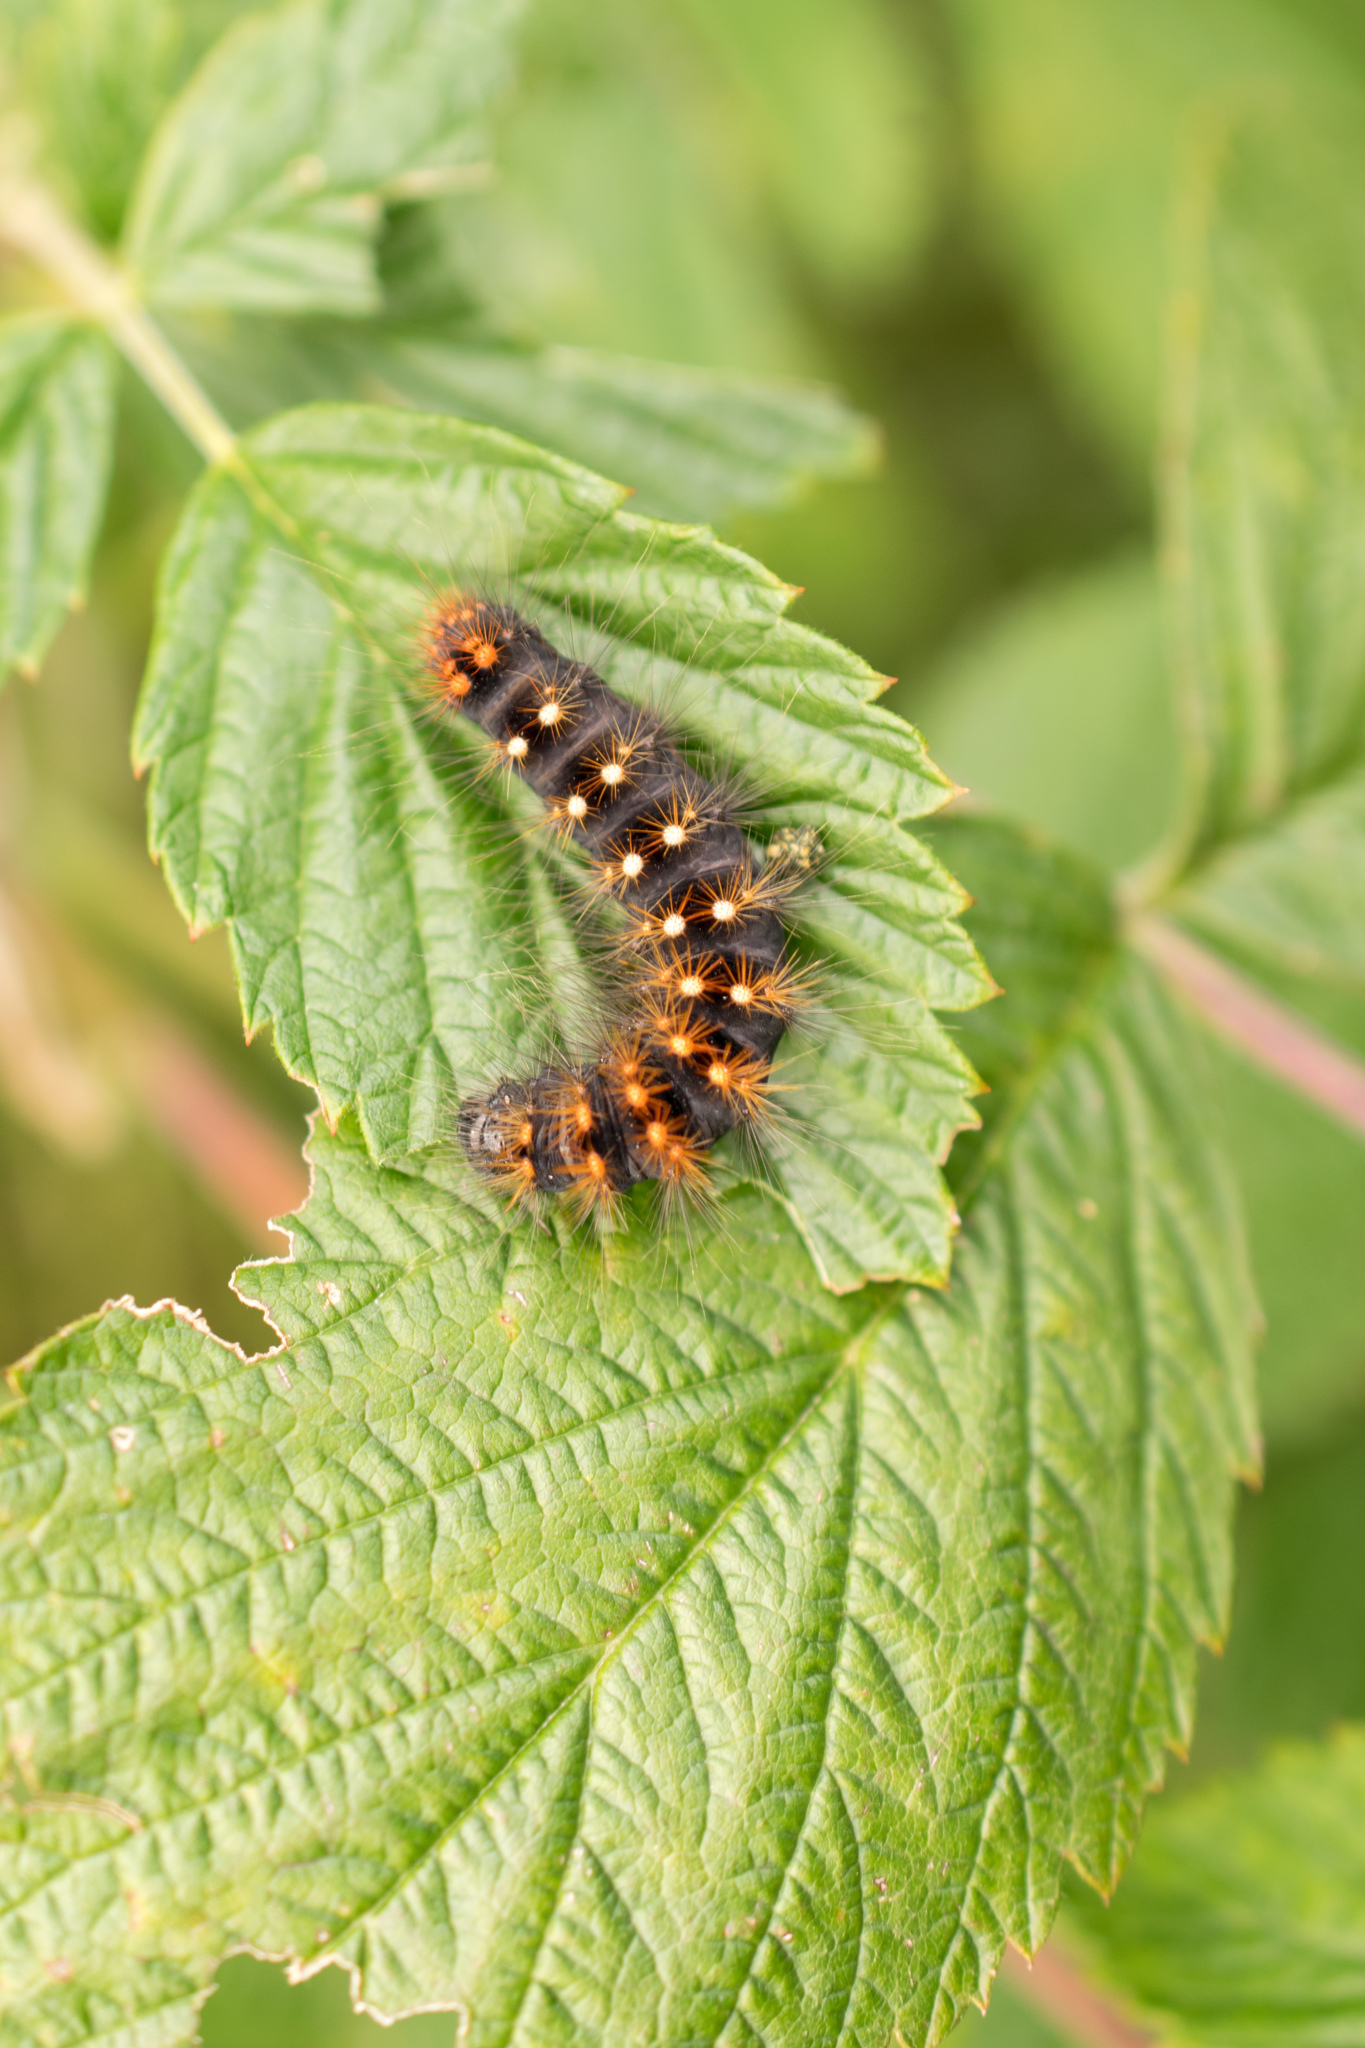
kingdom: Animalia
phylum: Arthropoda
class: Insecta
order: Lepidoptera
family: Noctuidae
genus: Acronicta
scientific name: Acronicta auricoma
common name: Scarce dagger
